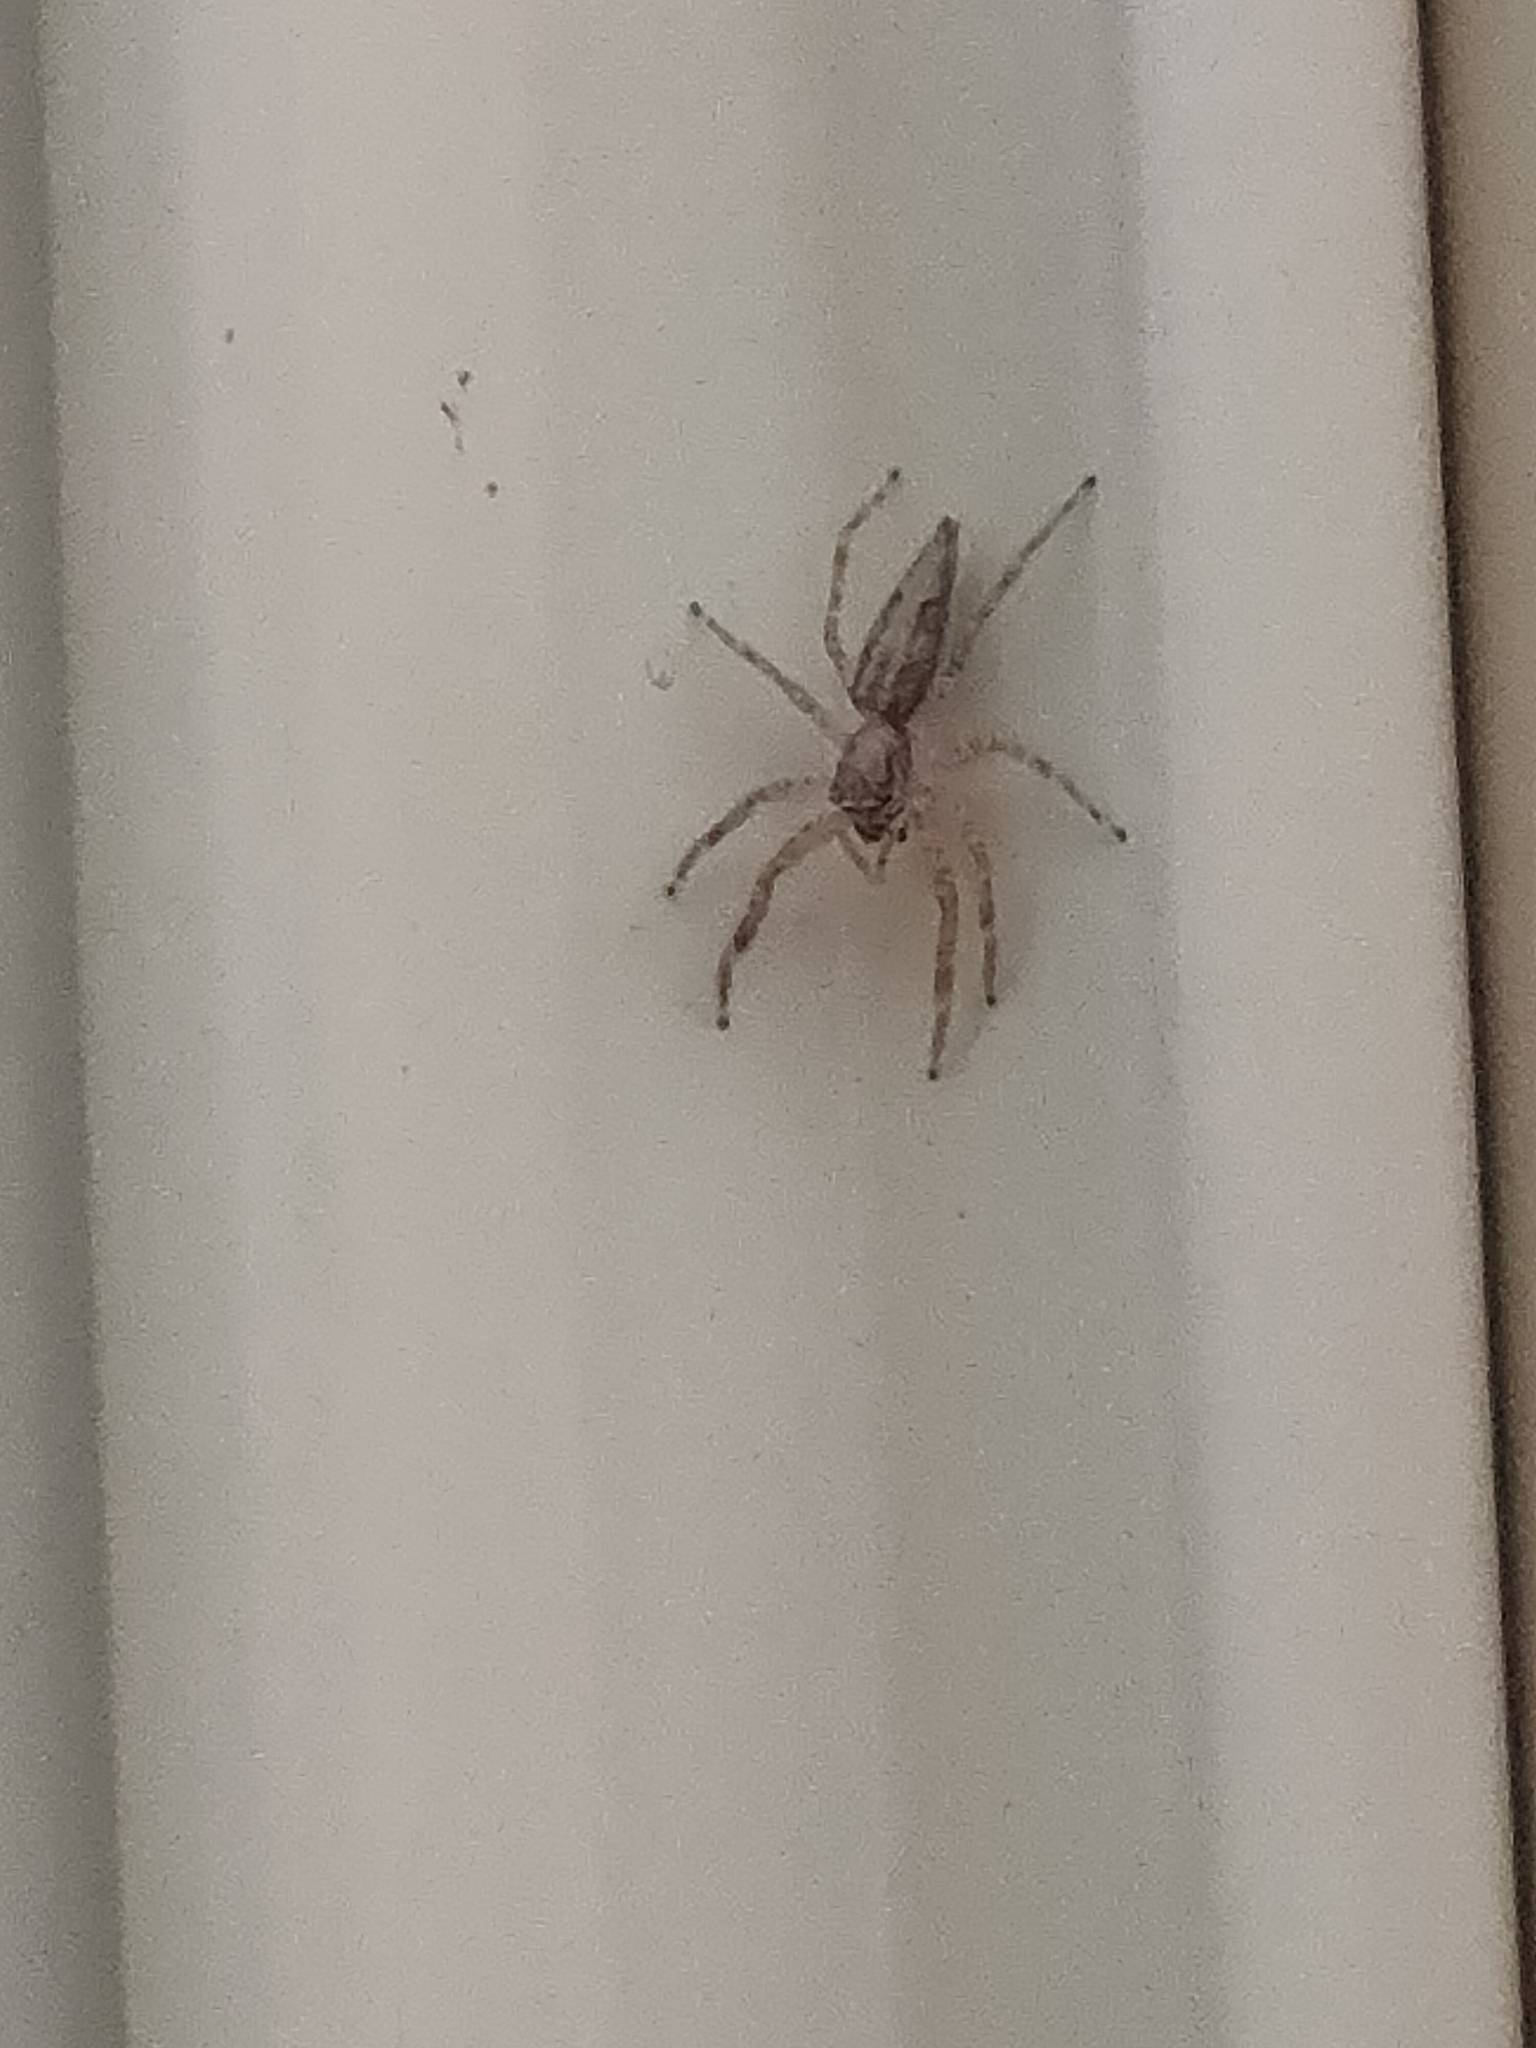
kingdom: Animalia
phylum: Arthropoda
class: Arachnida
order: Araneae
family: Salticidae
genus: Helpis
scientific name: Helpis minitabunda
